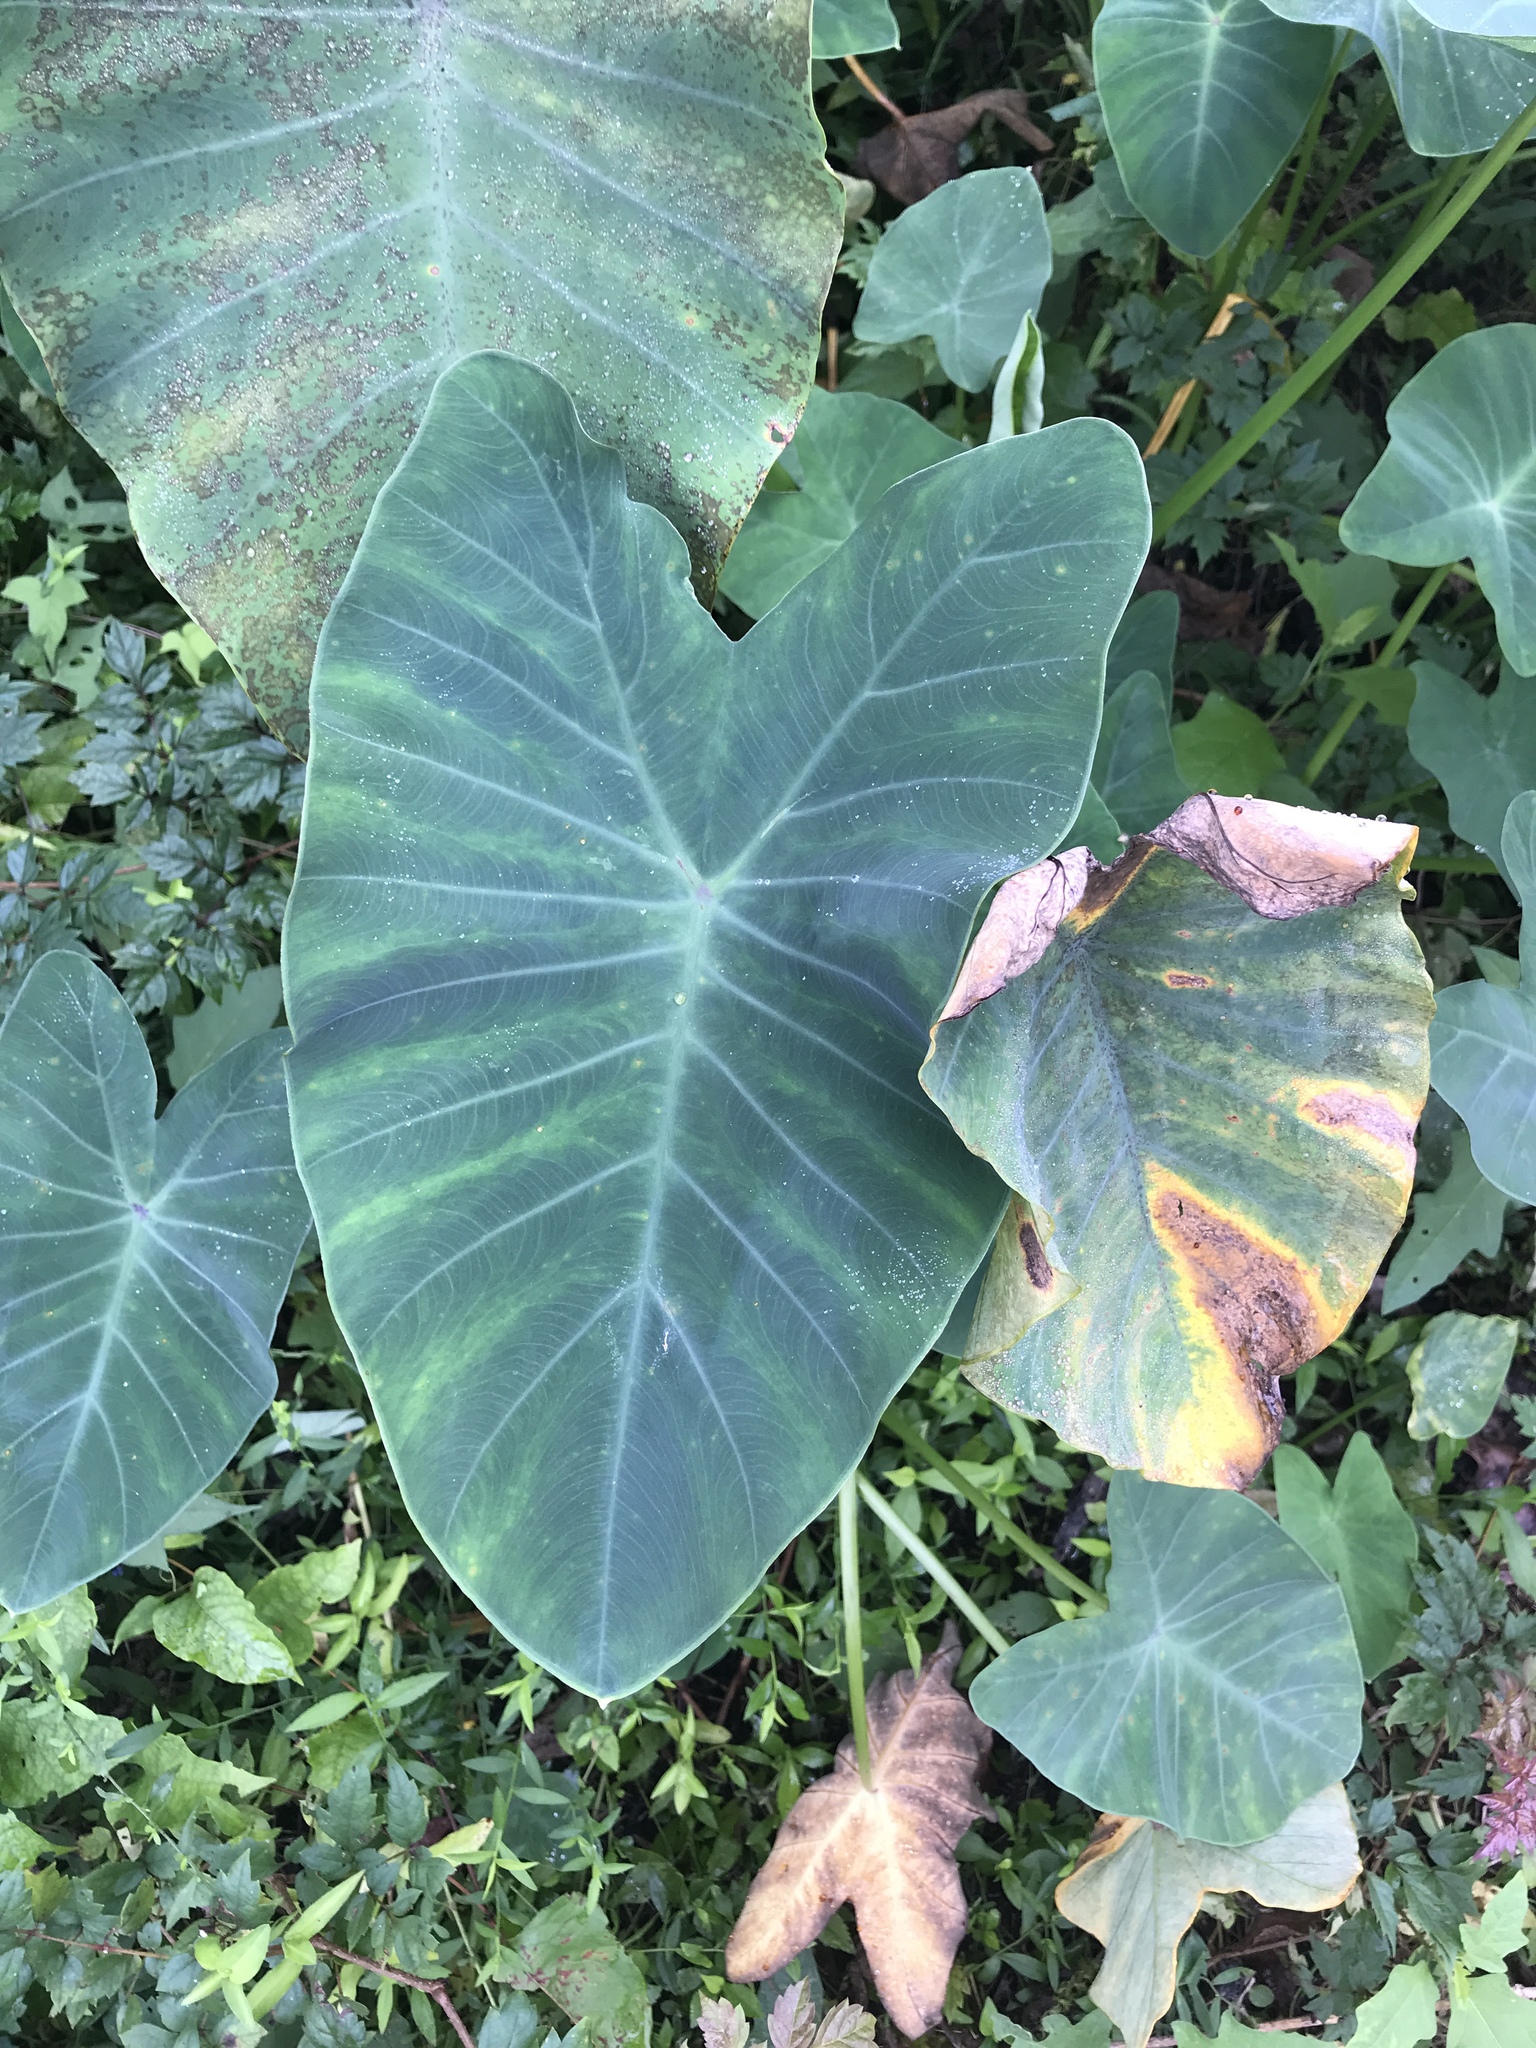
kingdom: Plantae
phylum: Tracheophyta
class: Liliopsida
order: Alismatales
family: Araceae
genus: Colocasia
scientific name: Colocasia esculenta
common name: Taro
